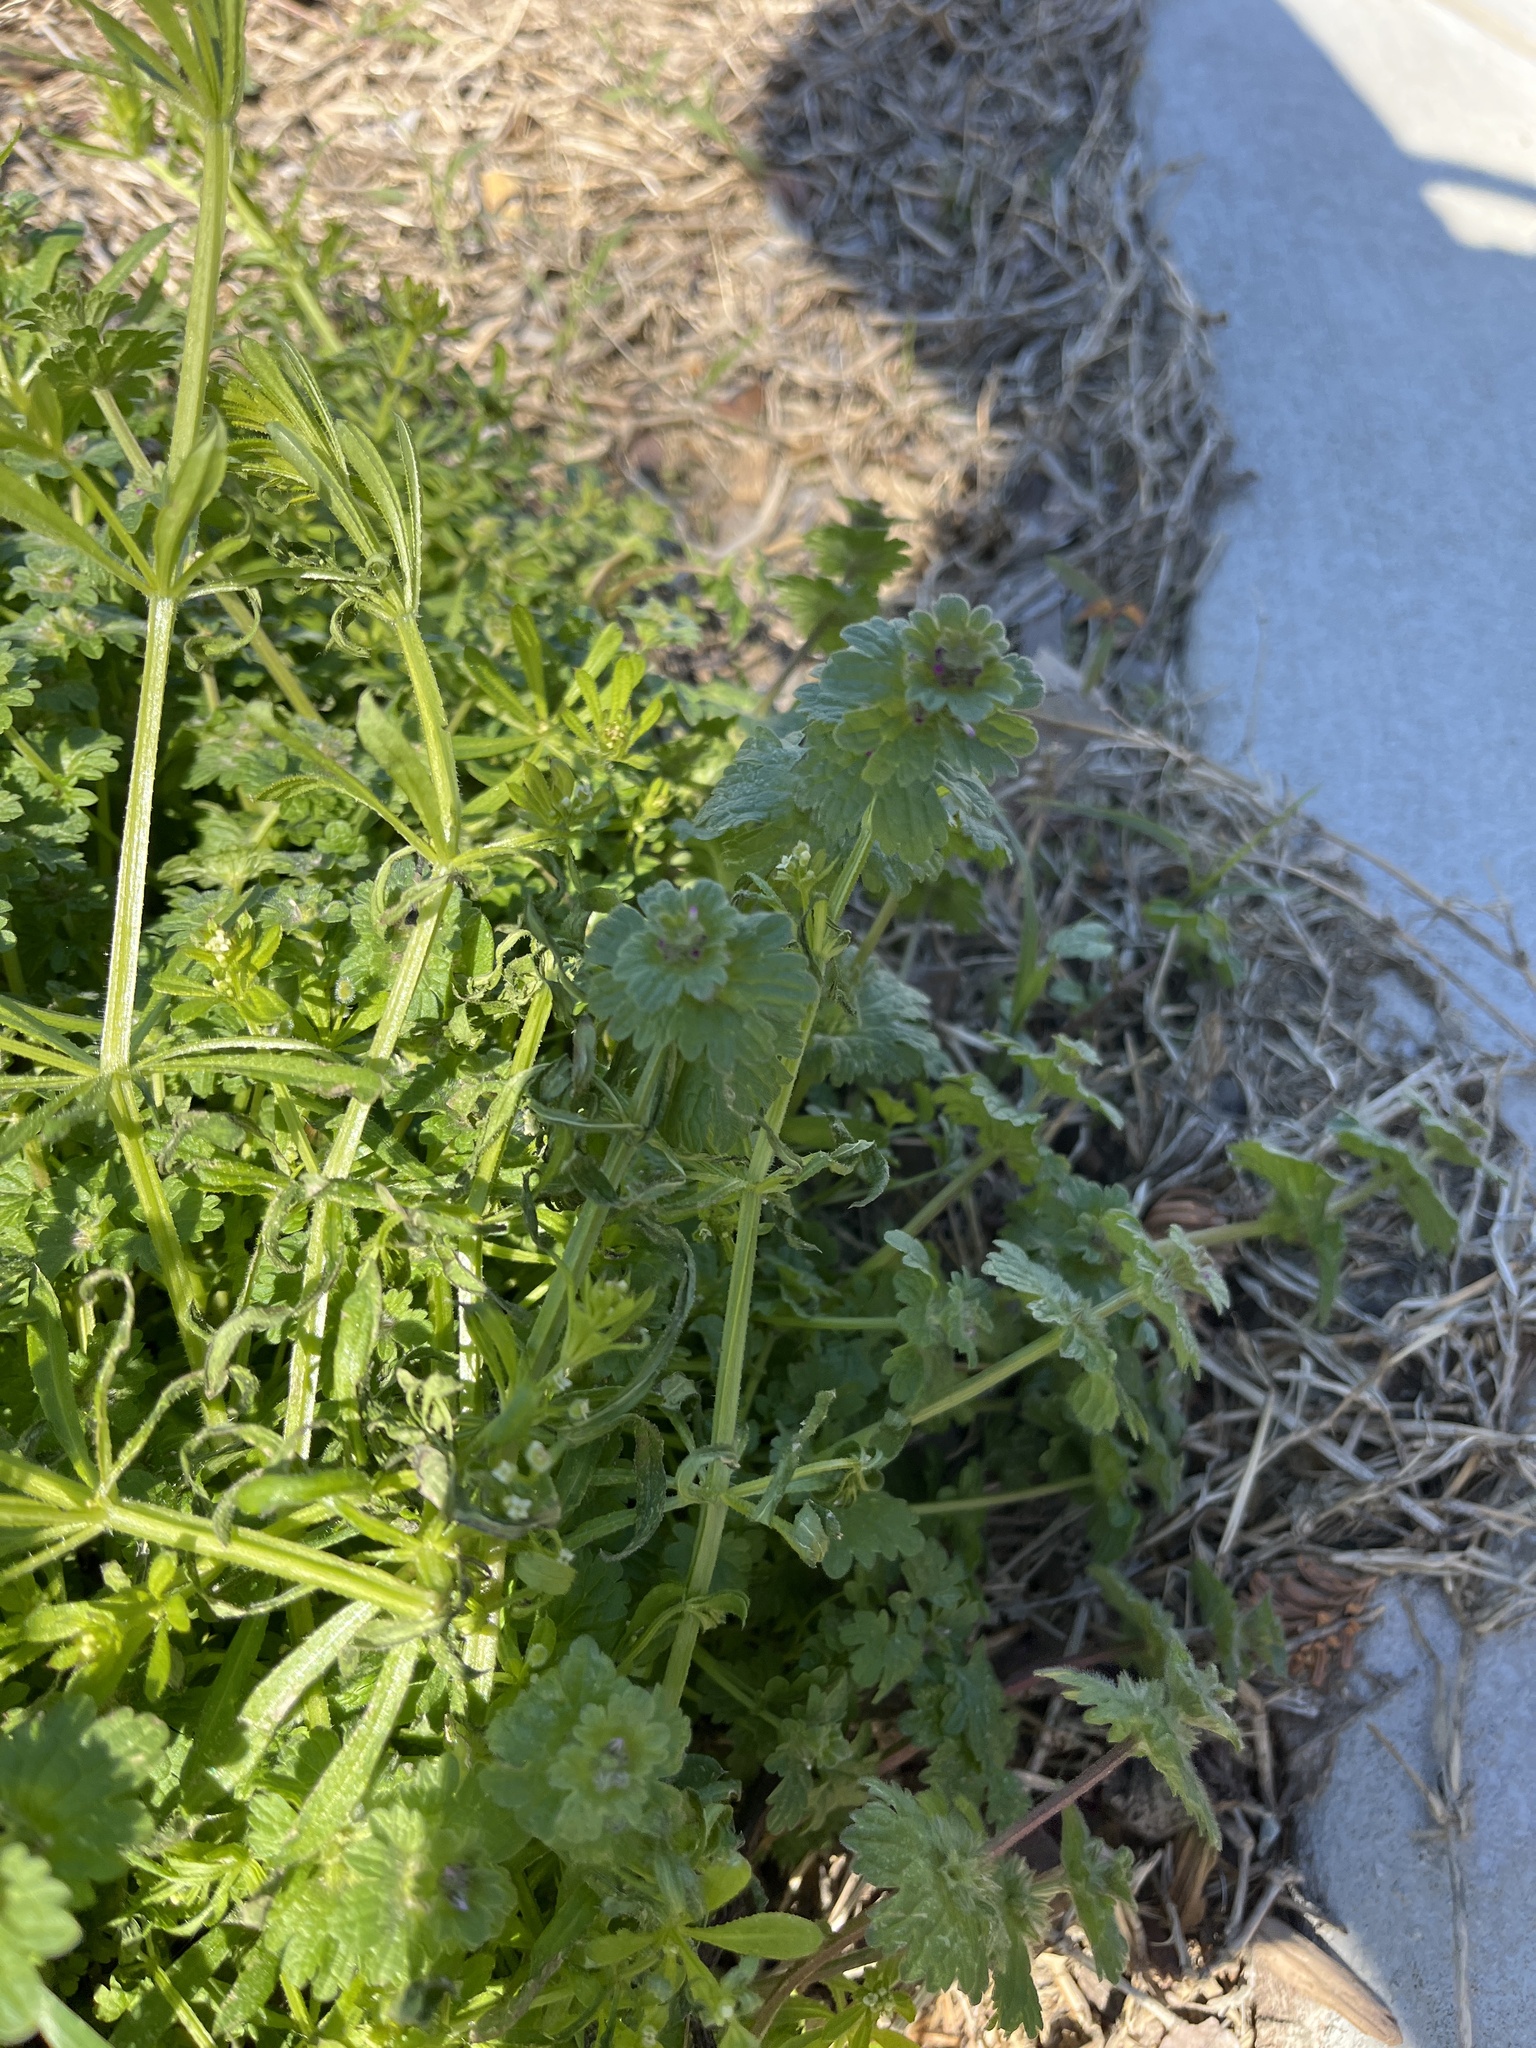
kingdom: Plantae
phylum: Tracheophyta
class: Magnoliopsida
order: Lamiales
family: Lamiaceae
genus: Lamium
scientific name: Lamium amplexicaule
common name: Henbit dead-nettle
